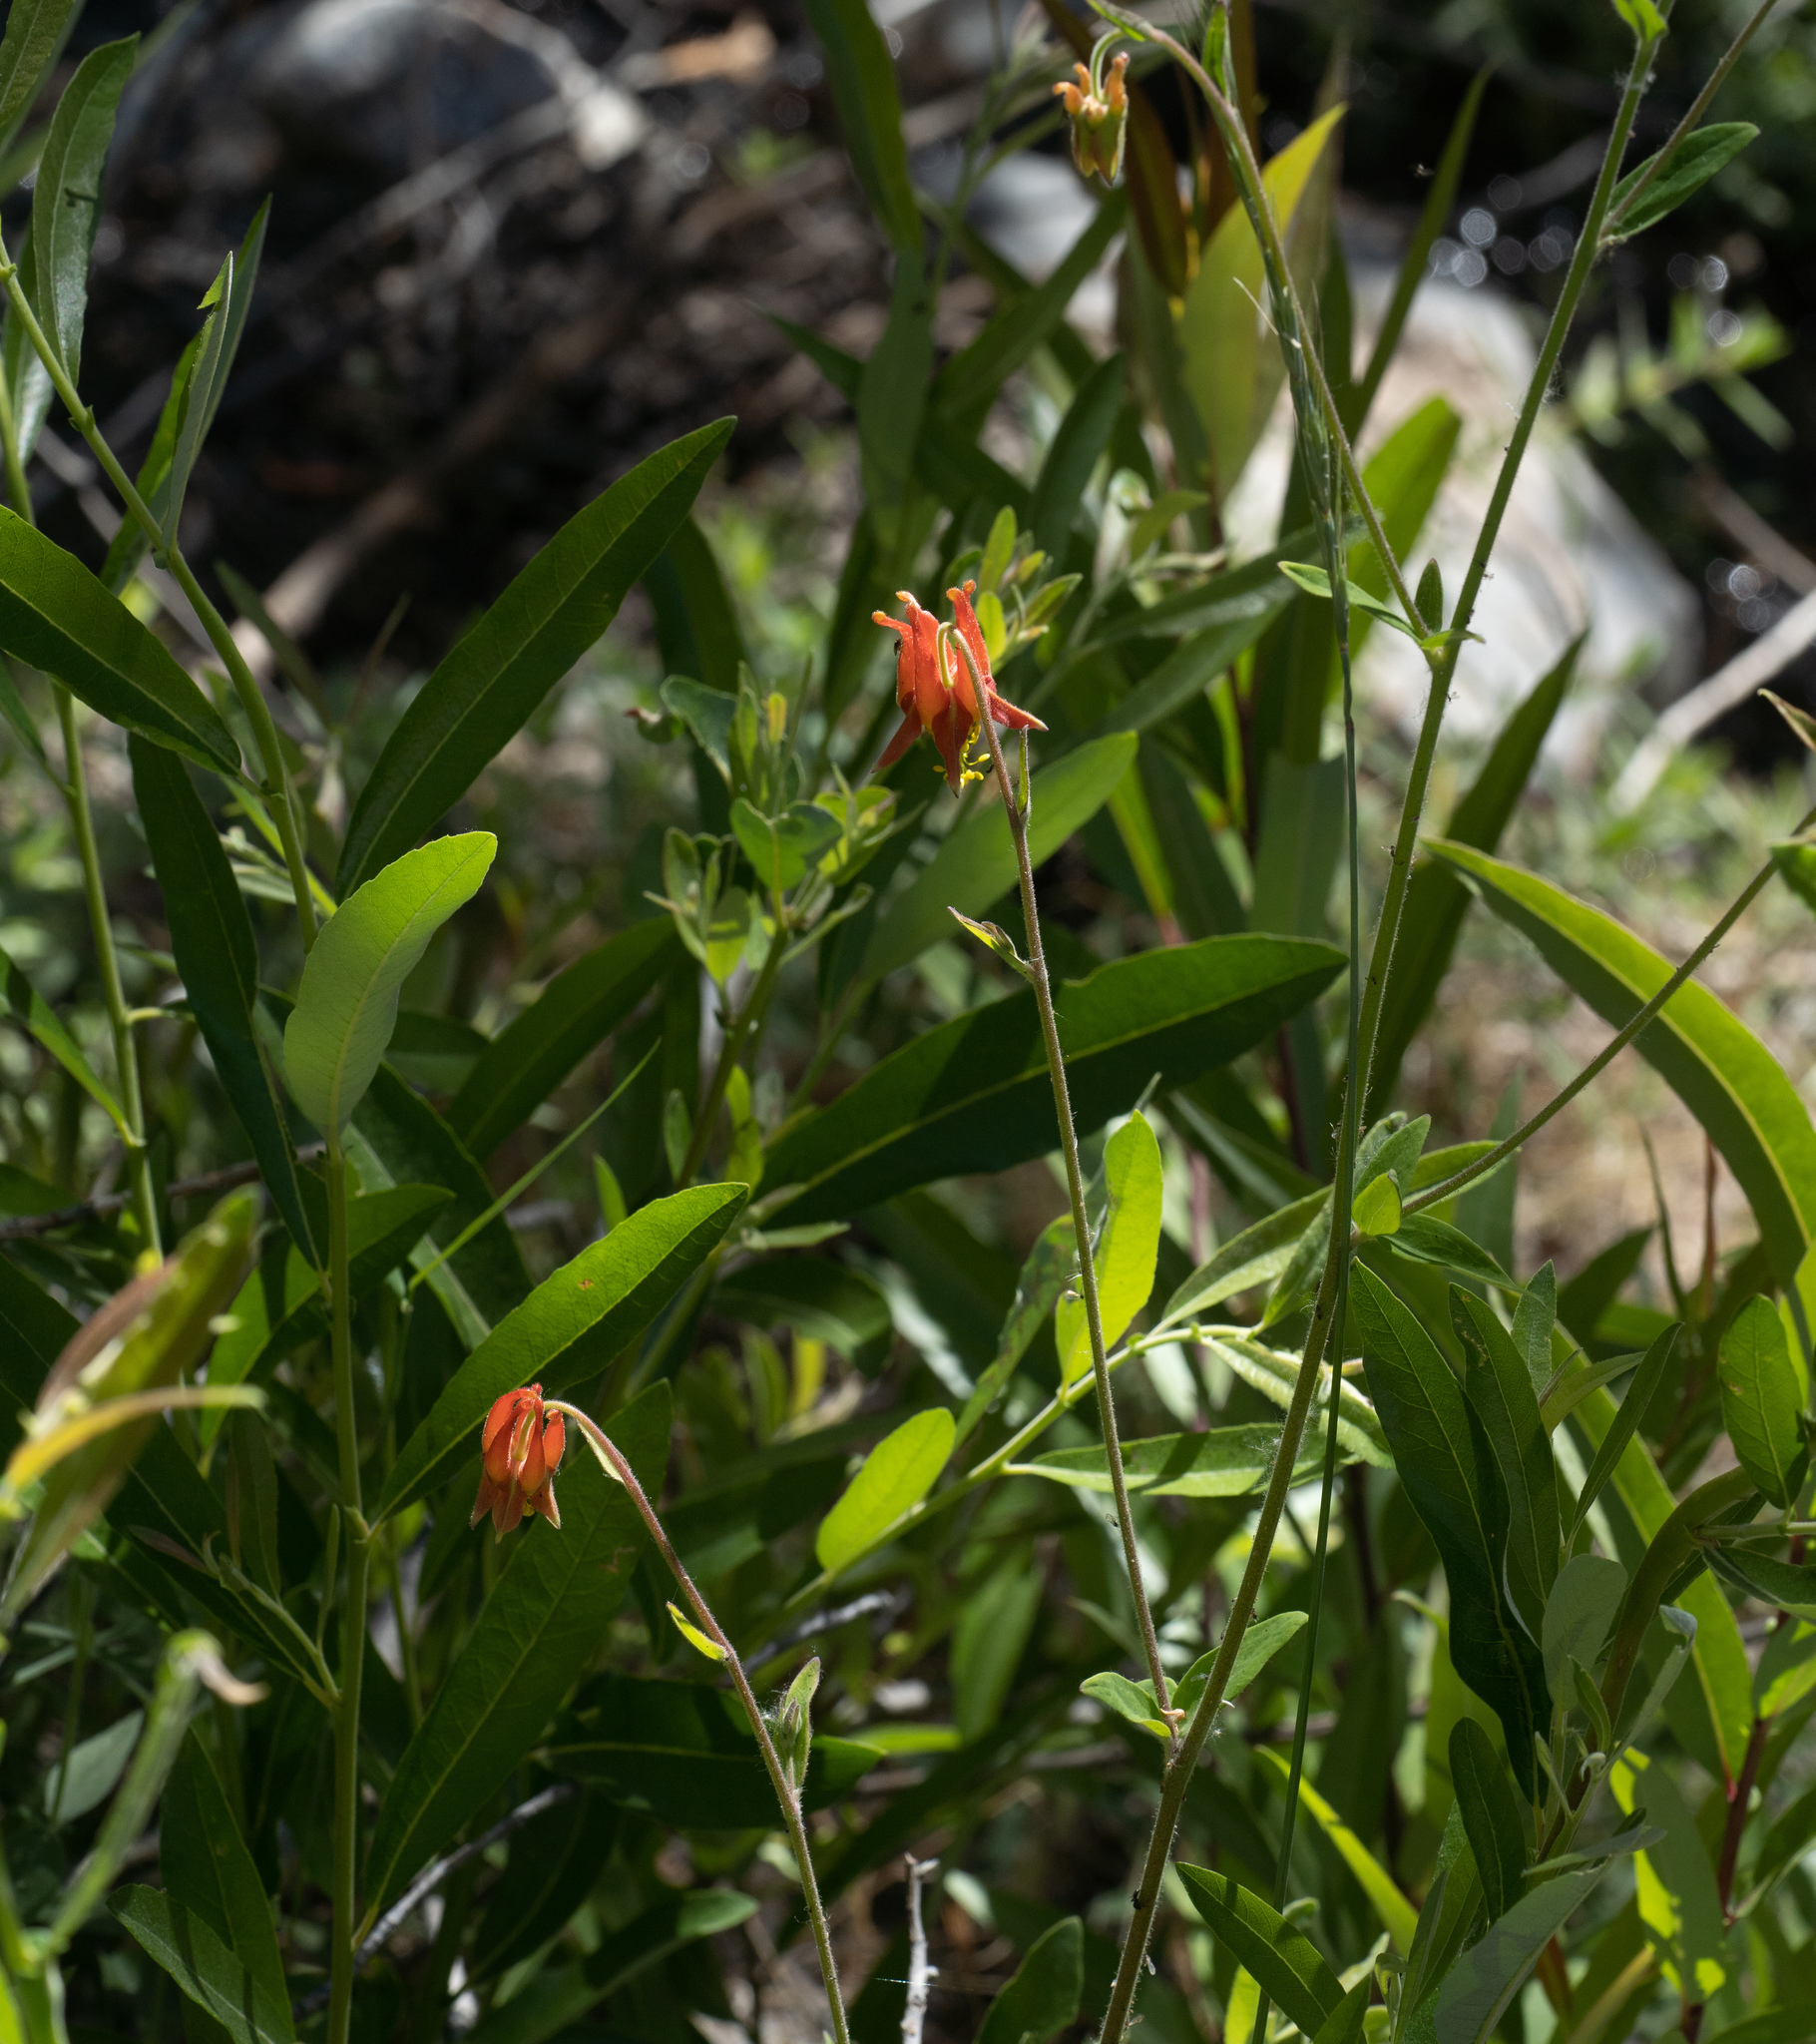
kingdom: Plantae
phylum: Tracheophyta
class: Magnoliopsida
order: Ranunculales
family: Ranunculaceae
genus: Aquilegia
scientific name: Aquilegia formosa
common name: Sitka columbine
